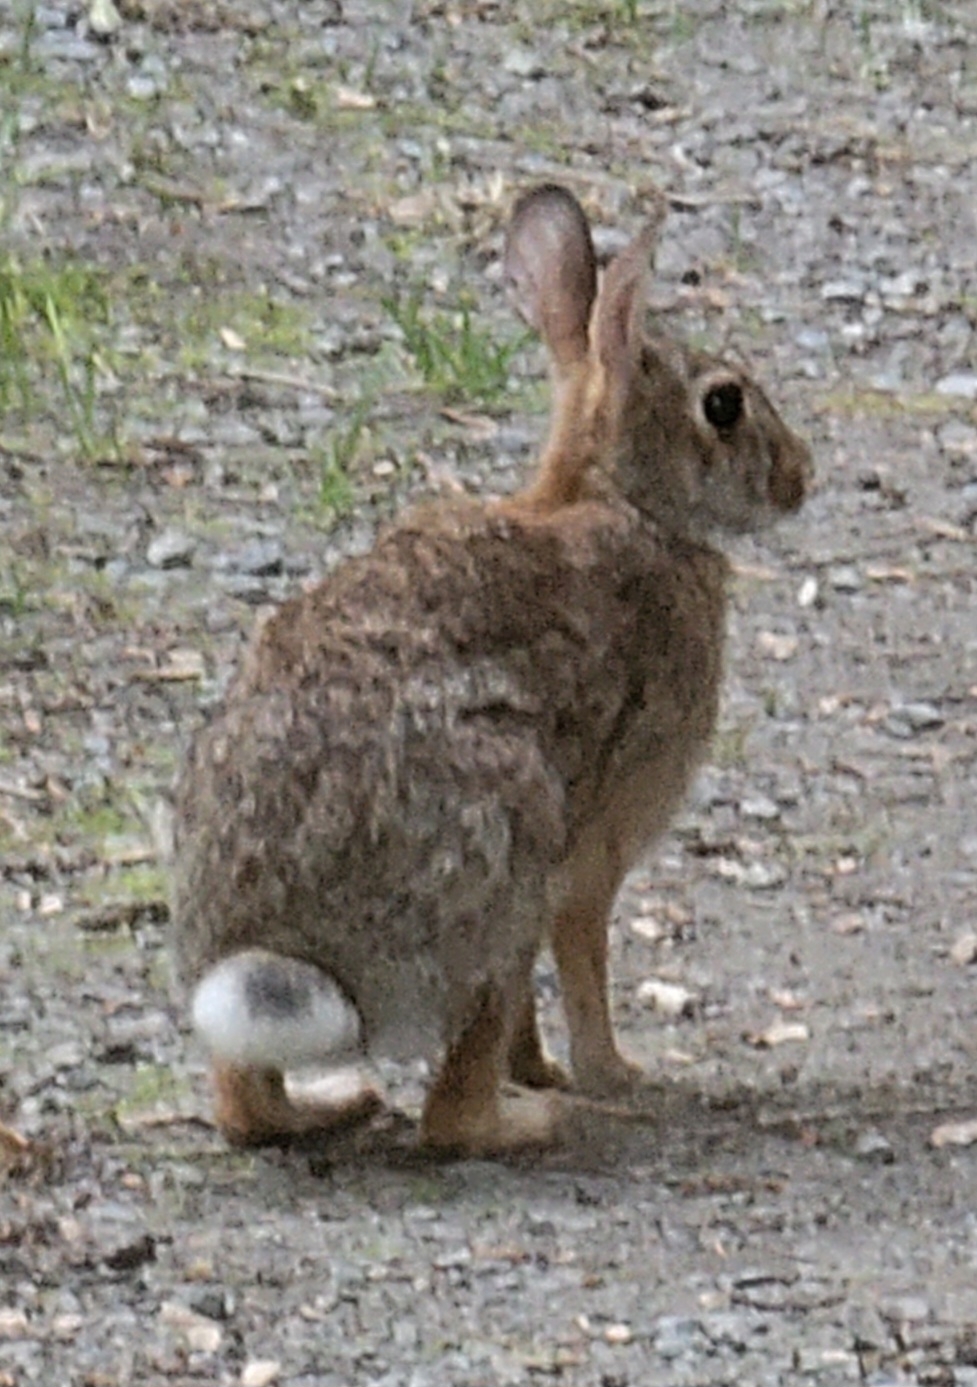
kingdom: Animalia
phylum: Chordata
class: Mammalia
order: Lagomorpha
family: Leporidae
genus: Sylvilagus
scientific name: Sylvilagus floridanus
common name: Eastern cottontail
